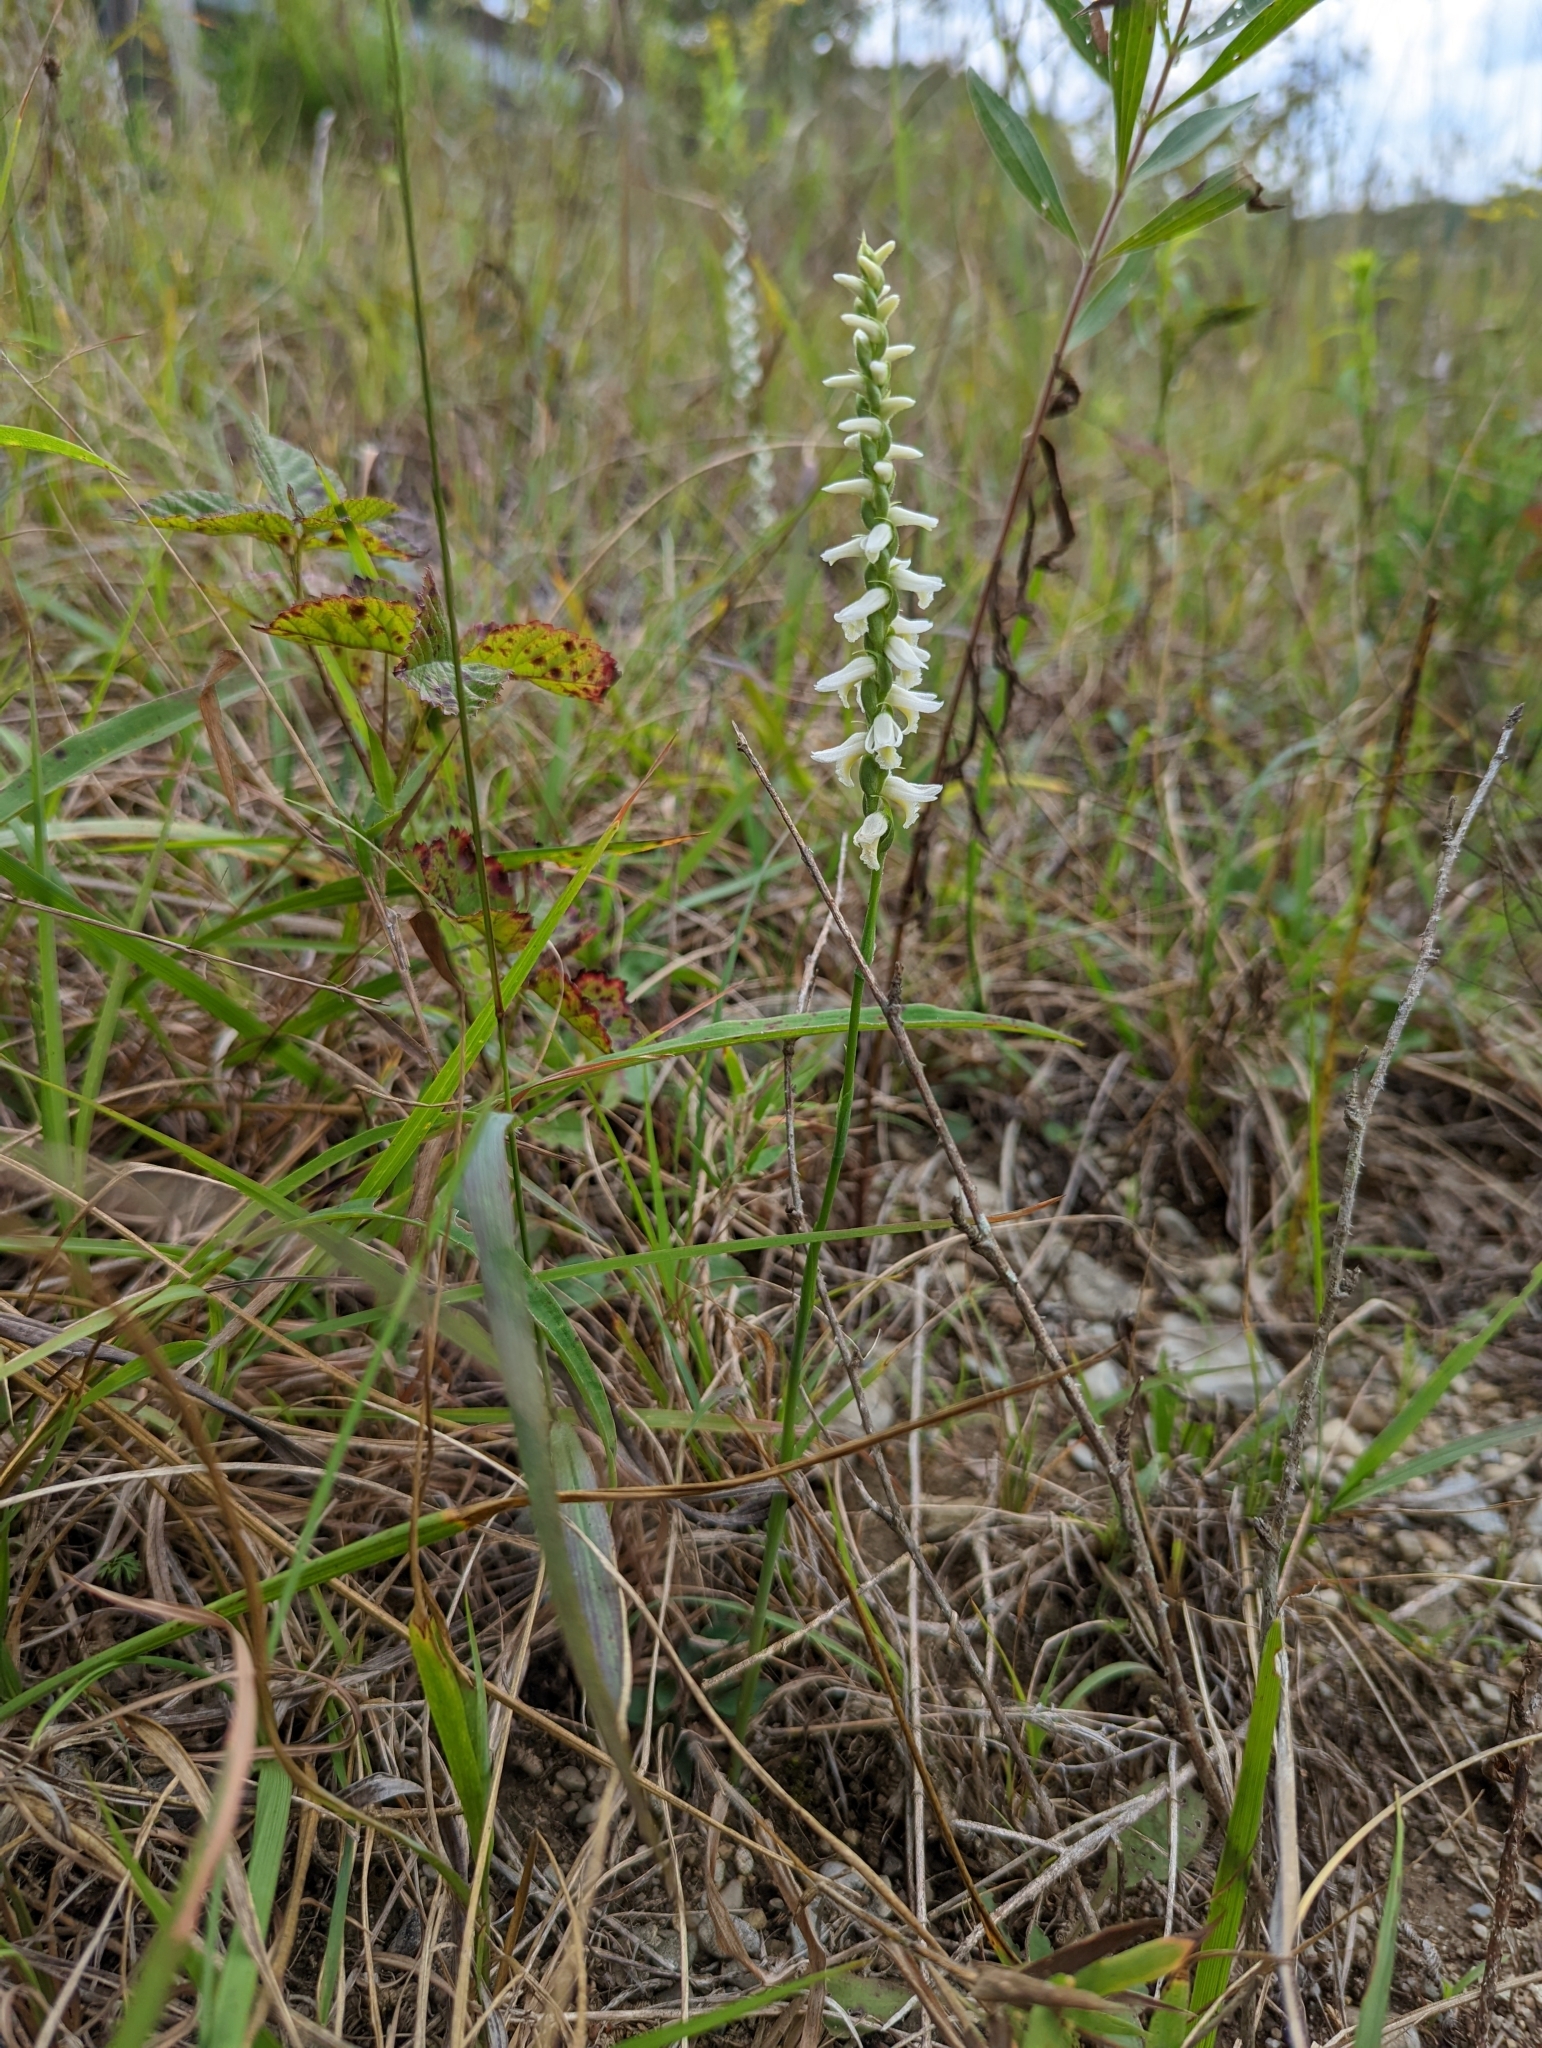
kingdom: Plantae
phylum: Tracheophyta
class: Liliopsida
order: Asparagales
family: Orchidaceae
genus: Spiranthes
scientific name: Spiranthes magnicamporum
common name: Great plains ladies'-tresses
